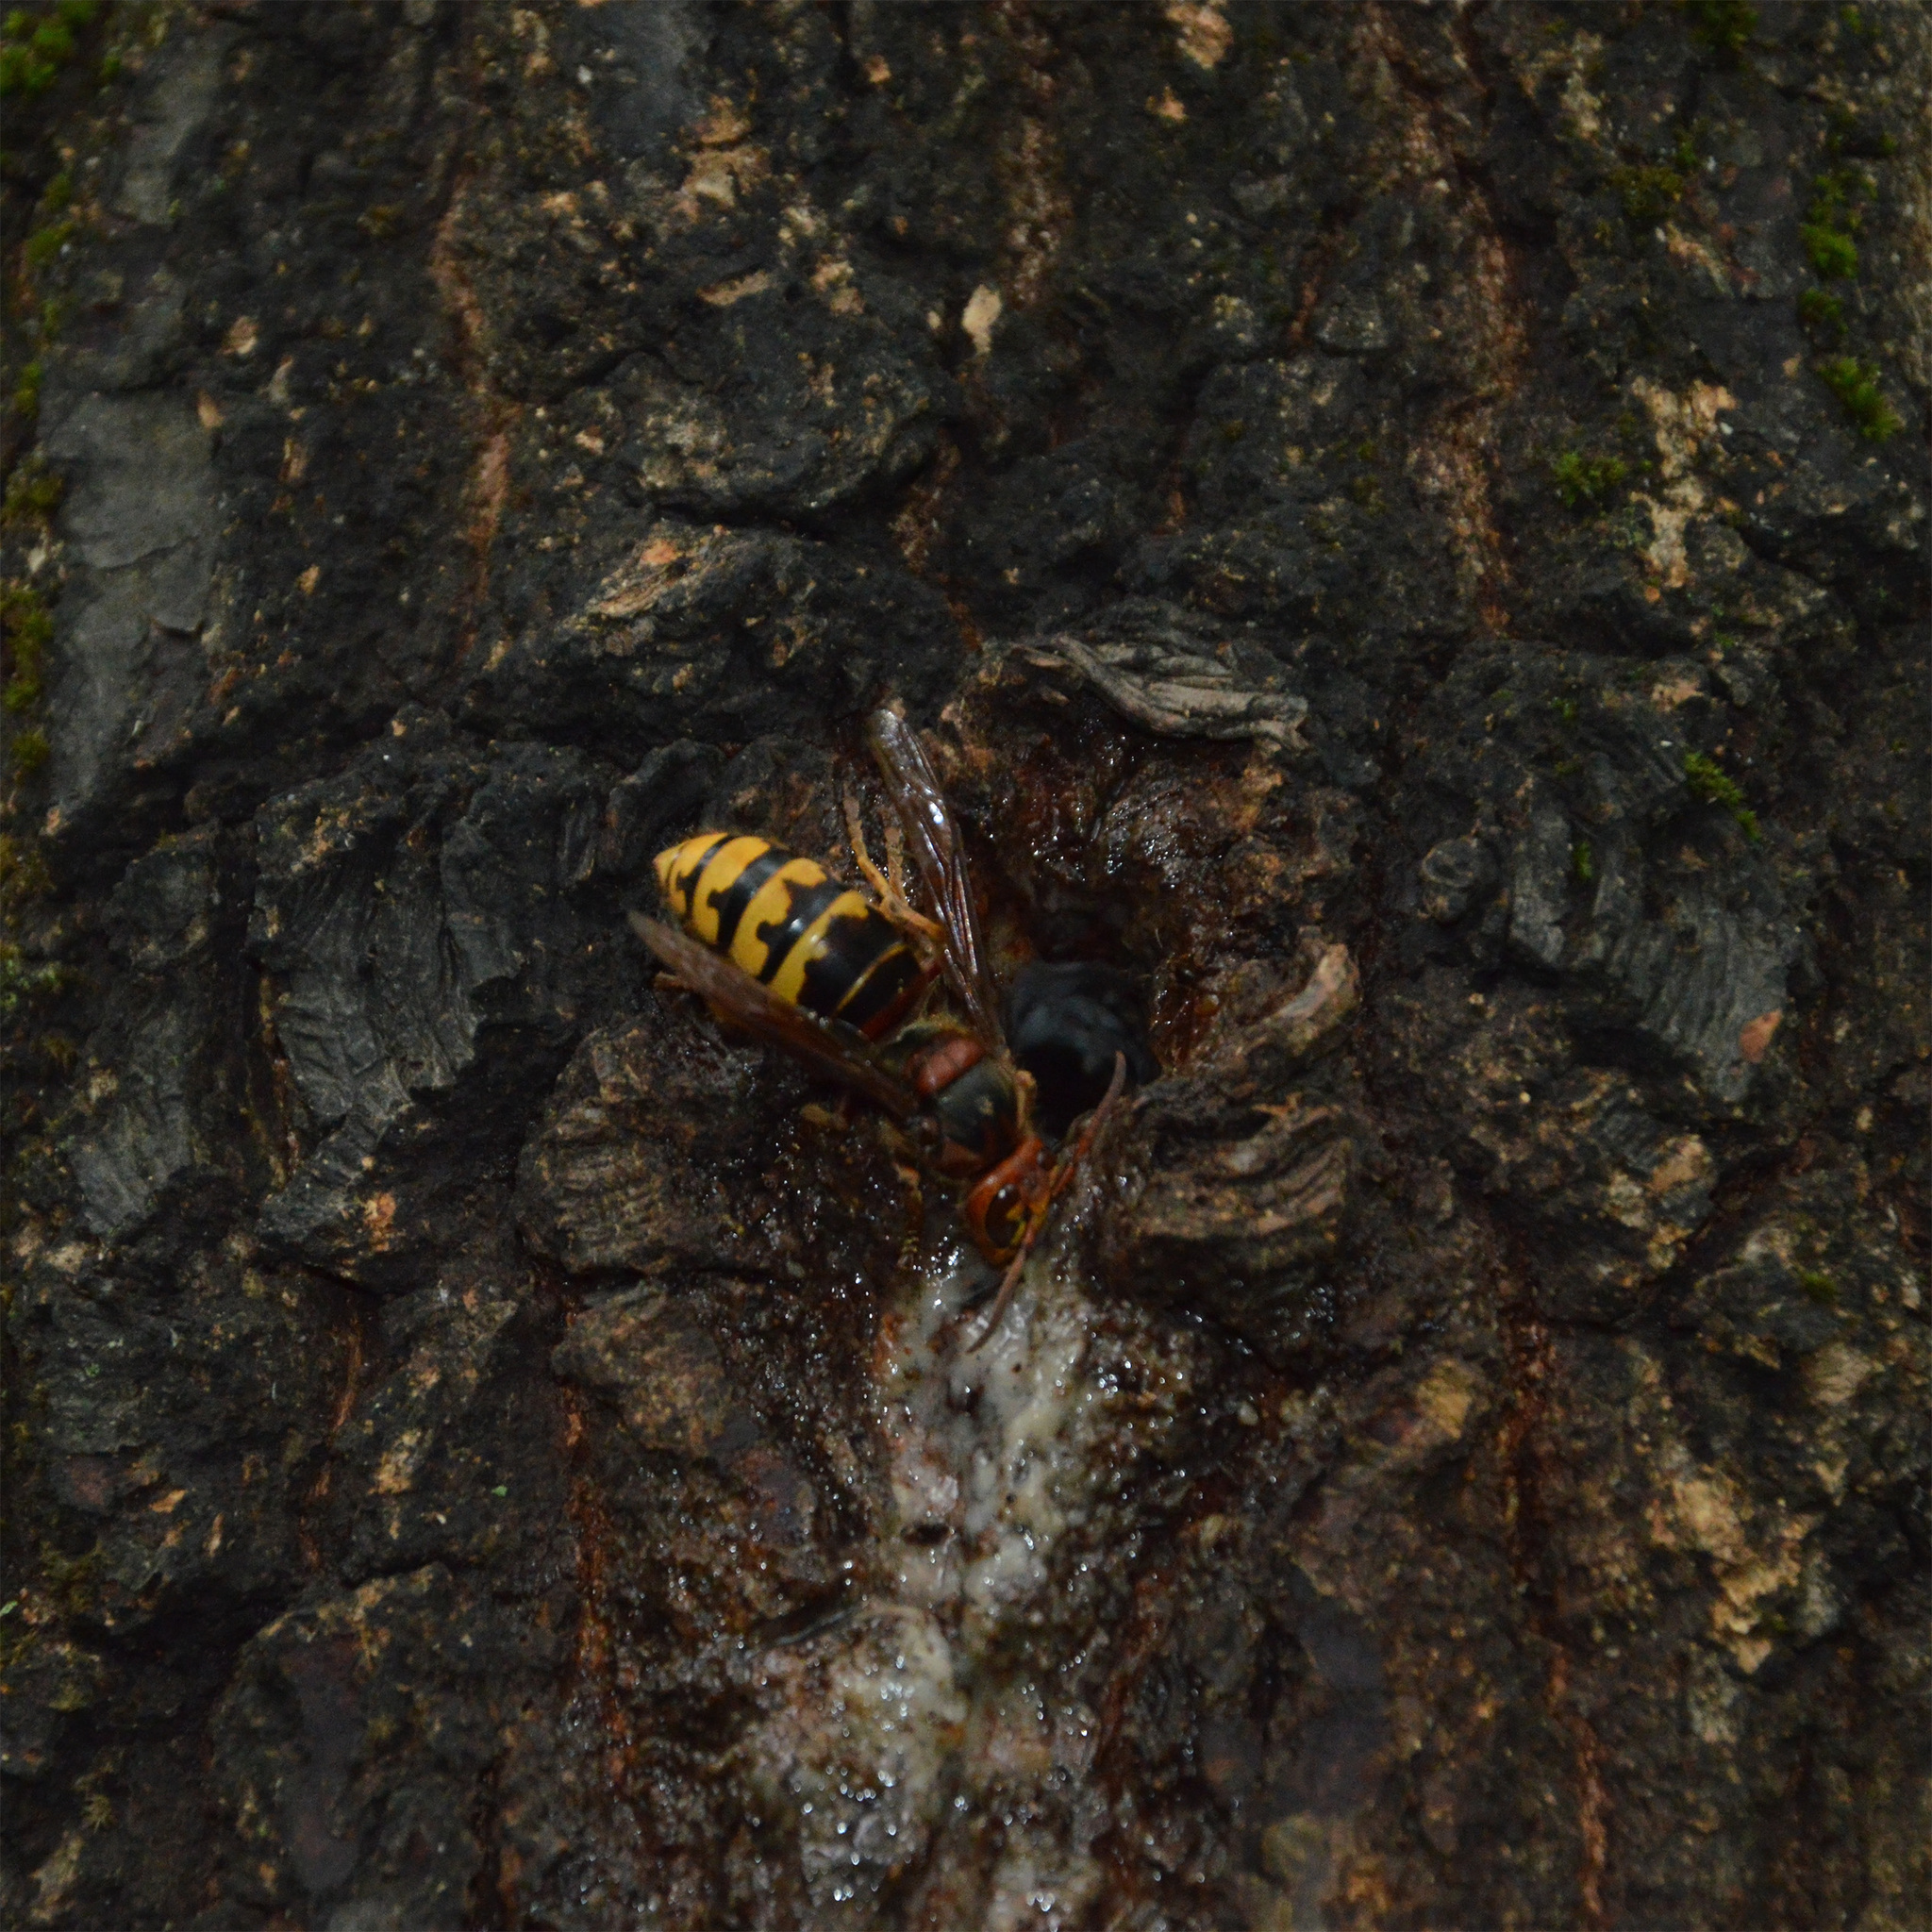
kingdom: Animalia
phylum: Arthropoda
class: Insecta
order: Hymenoptera
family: Vespidae
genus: Vespa
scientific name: Vespa crabro
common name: Hornet
